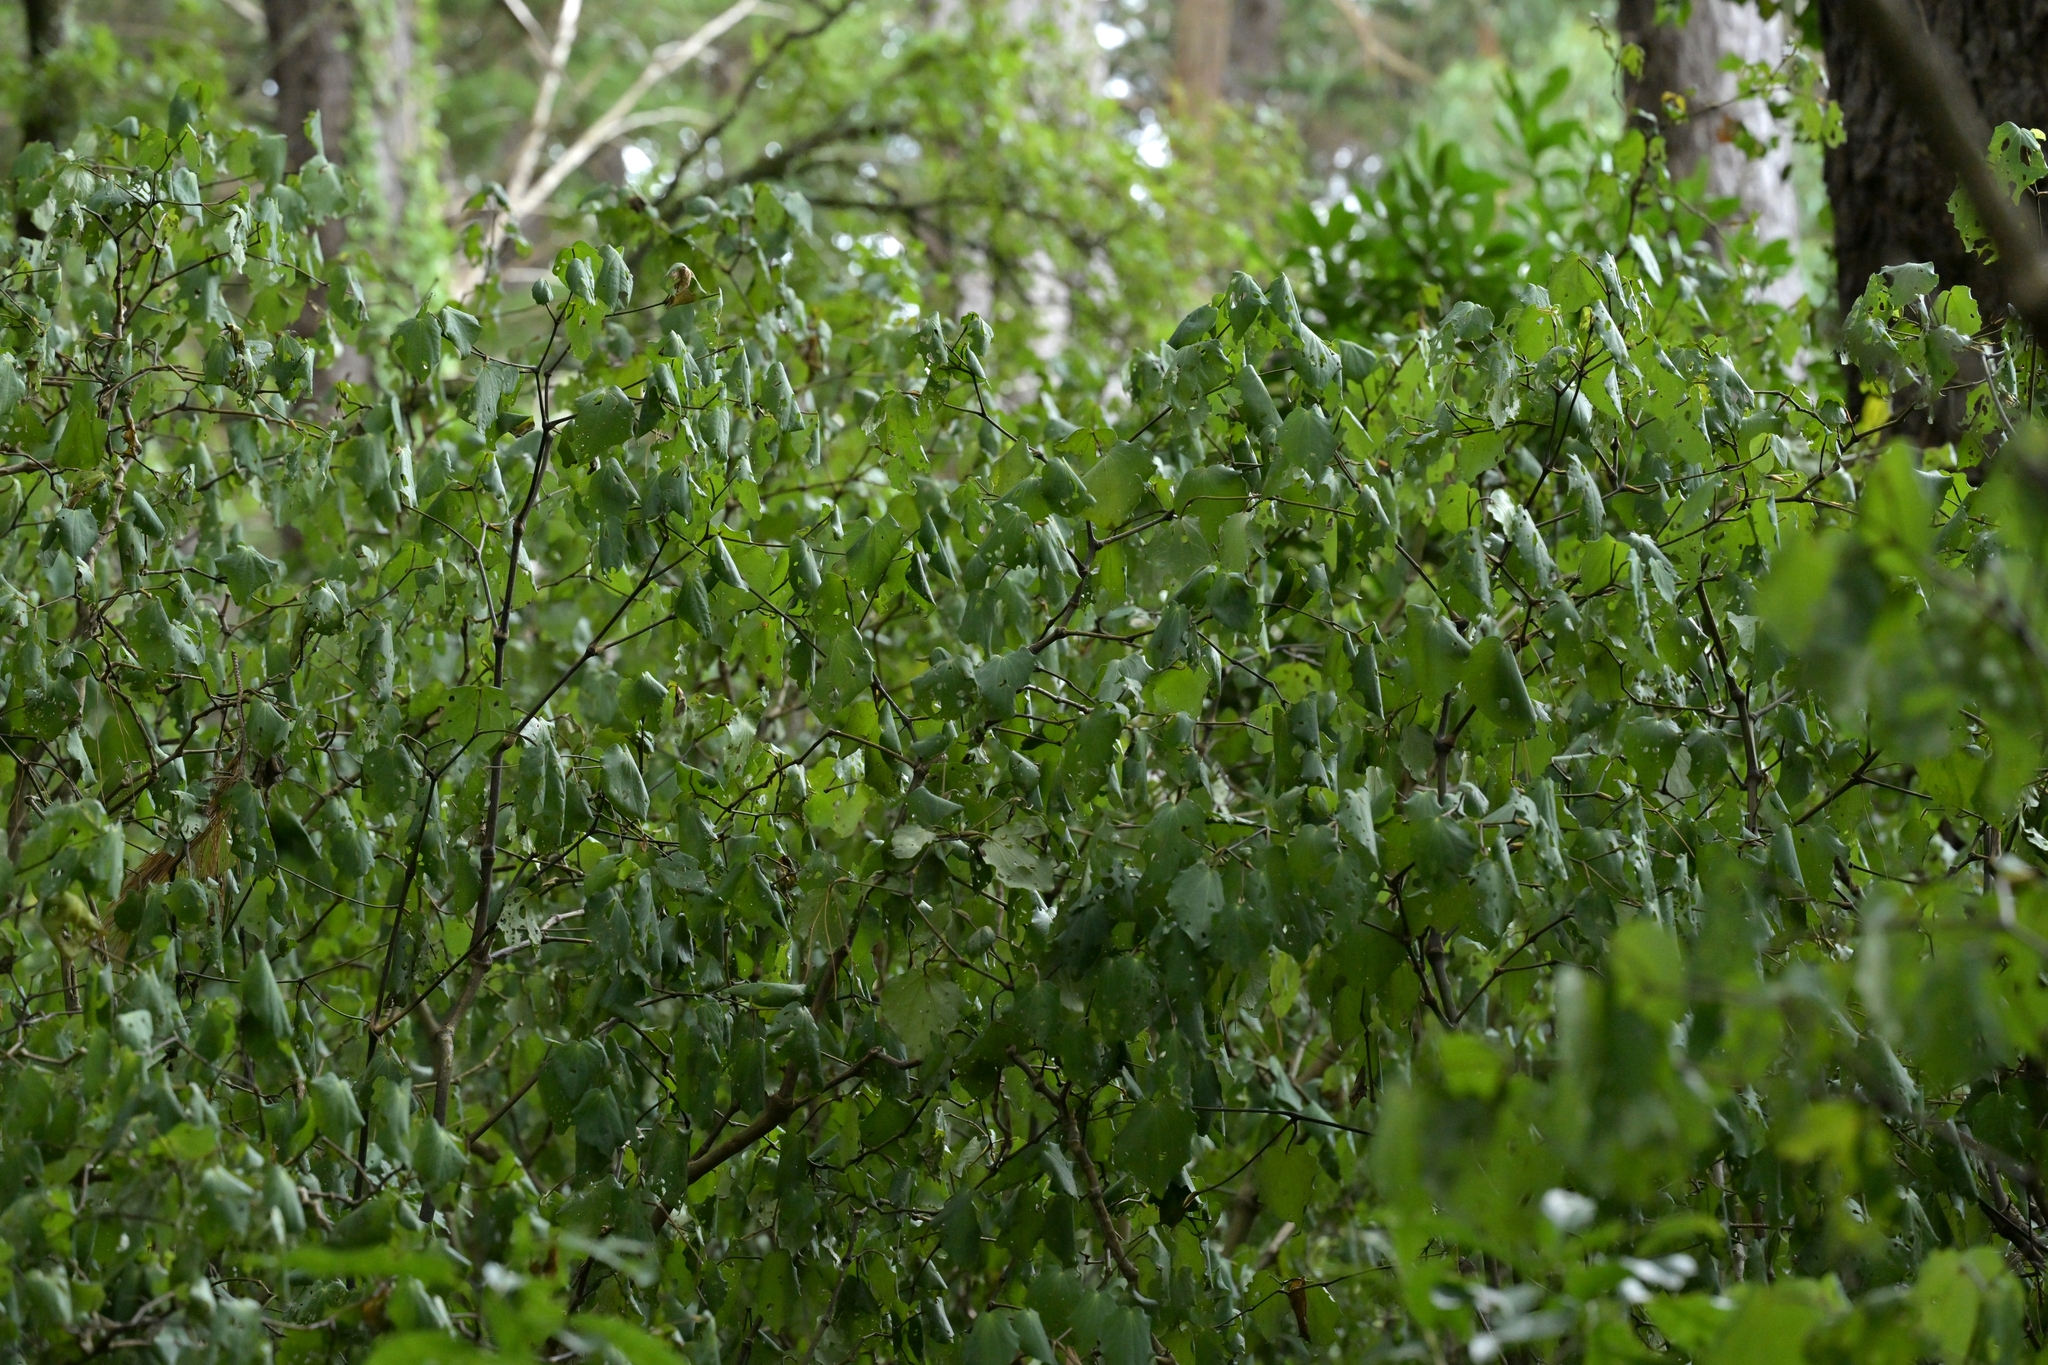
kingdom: Plantae
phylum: Tracheophyta
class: Magnoliopsida
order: Piperales
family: Piperaceae
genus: Macropiper
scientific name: Macropiper excelsum
